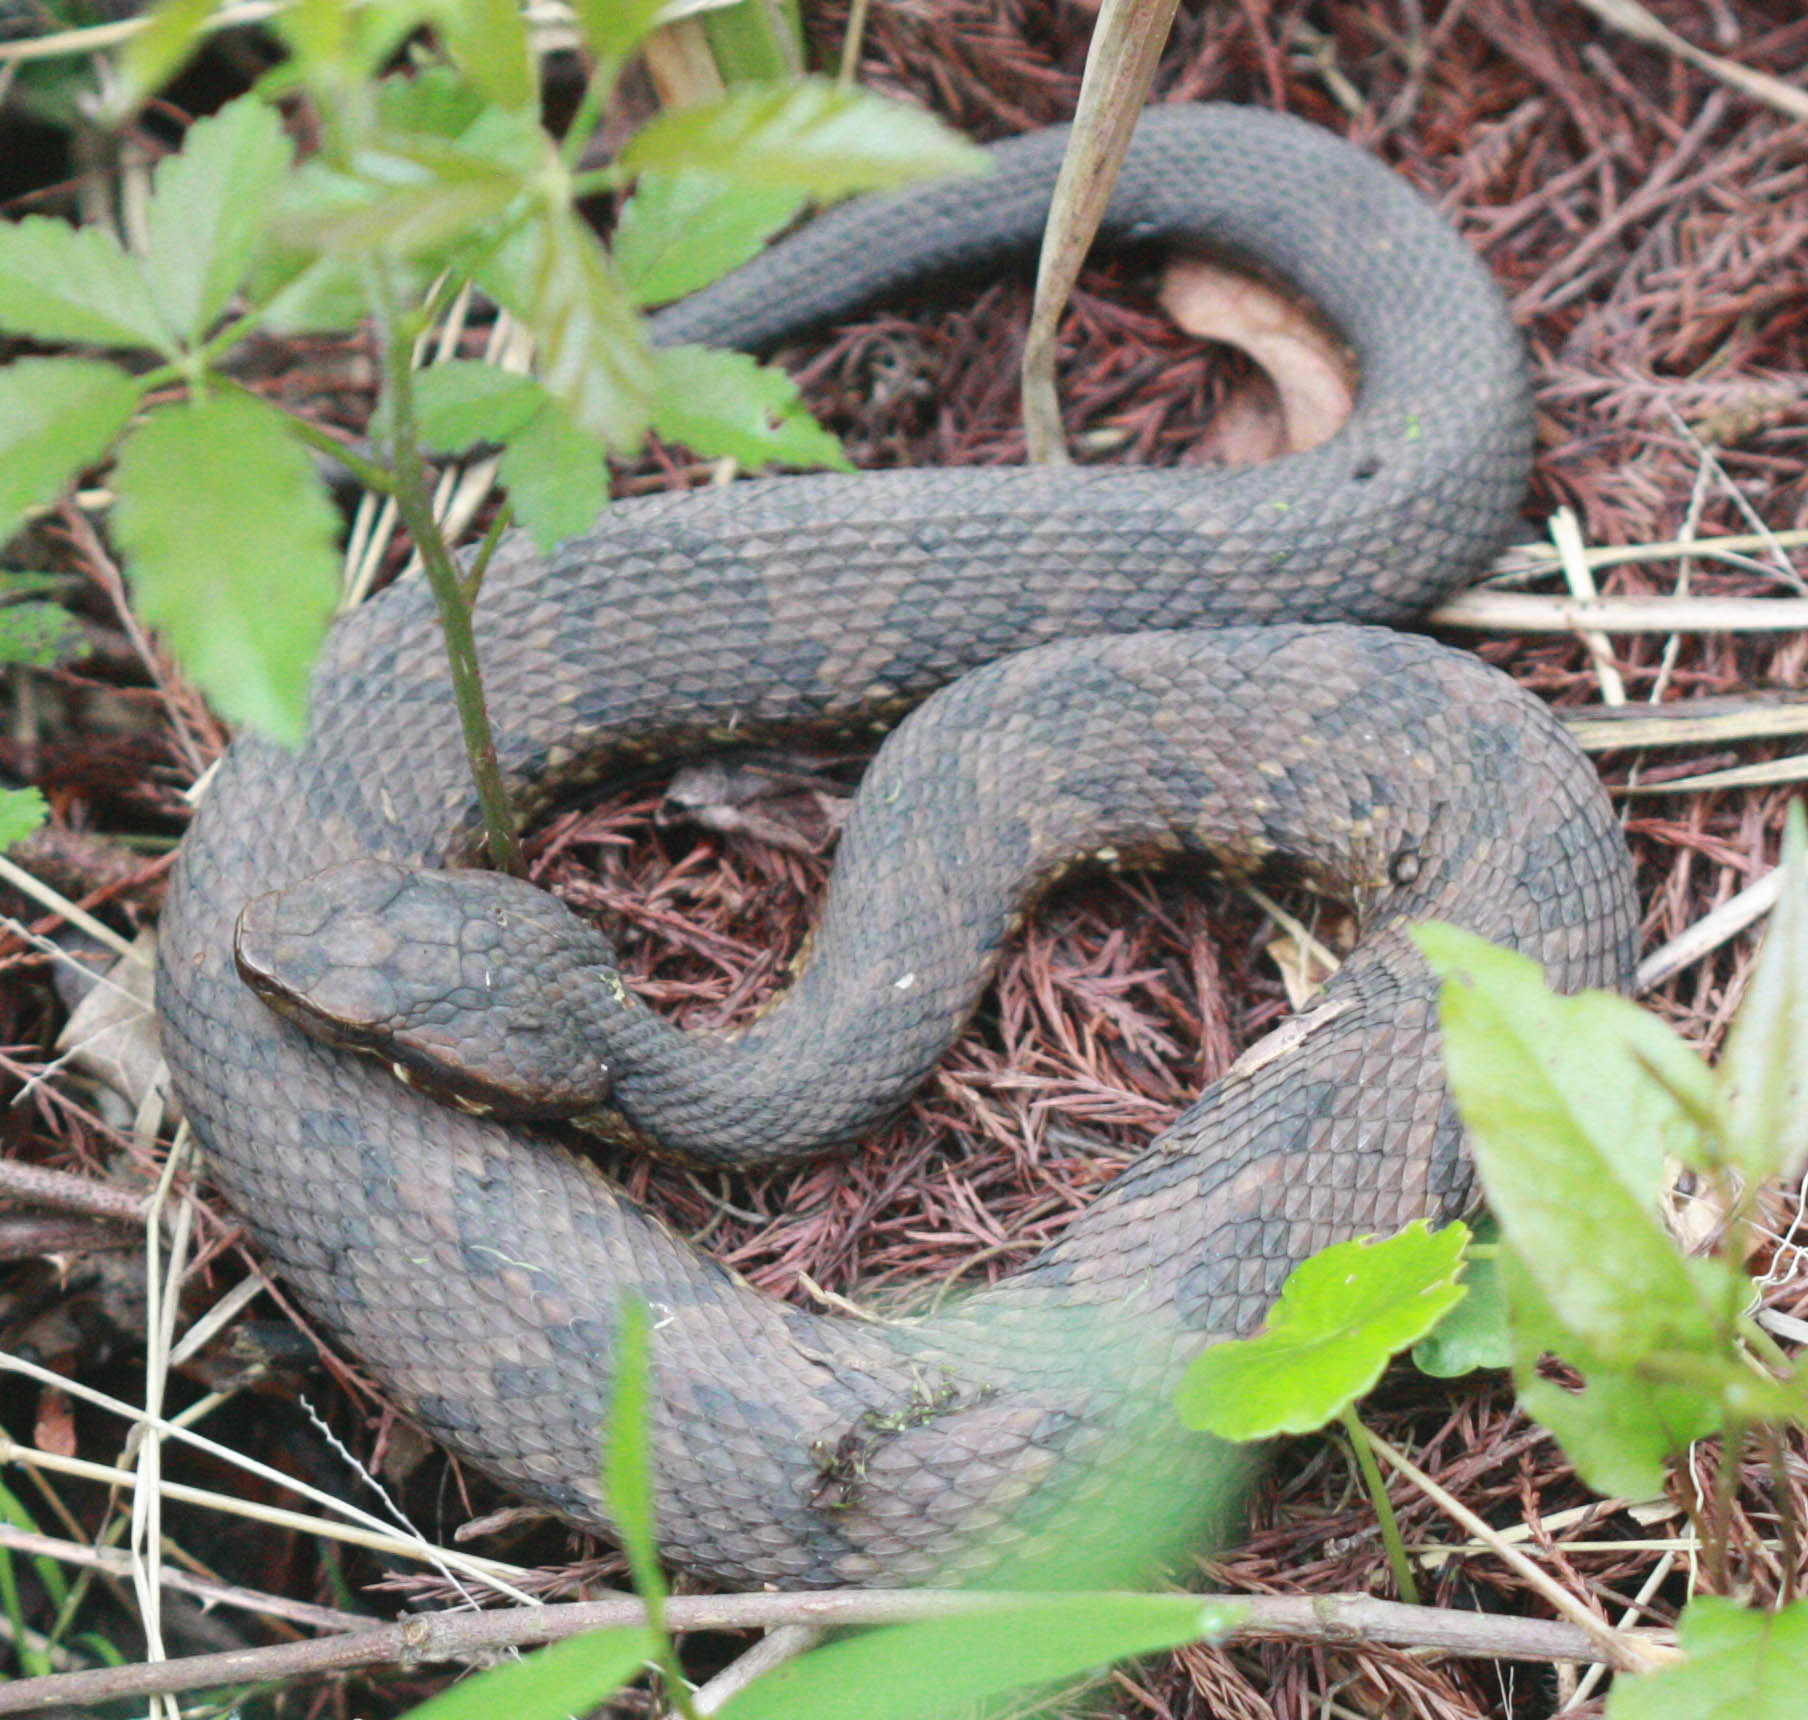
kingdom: Animalia
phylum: Chordata
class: Squamata
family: Viperidae
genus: Agkistrodon
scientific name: Agkistrodon piscivorus
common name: Cottonmouth
